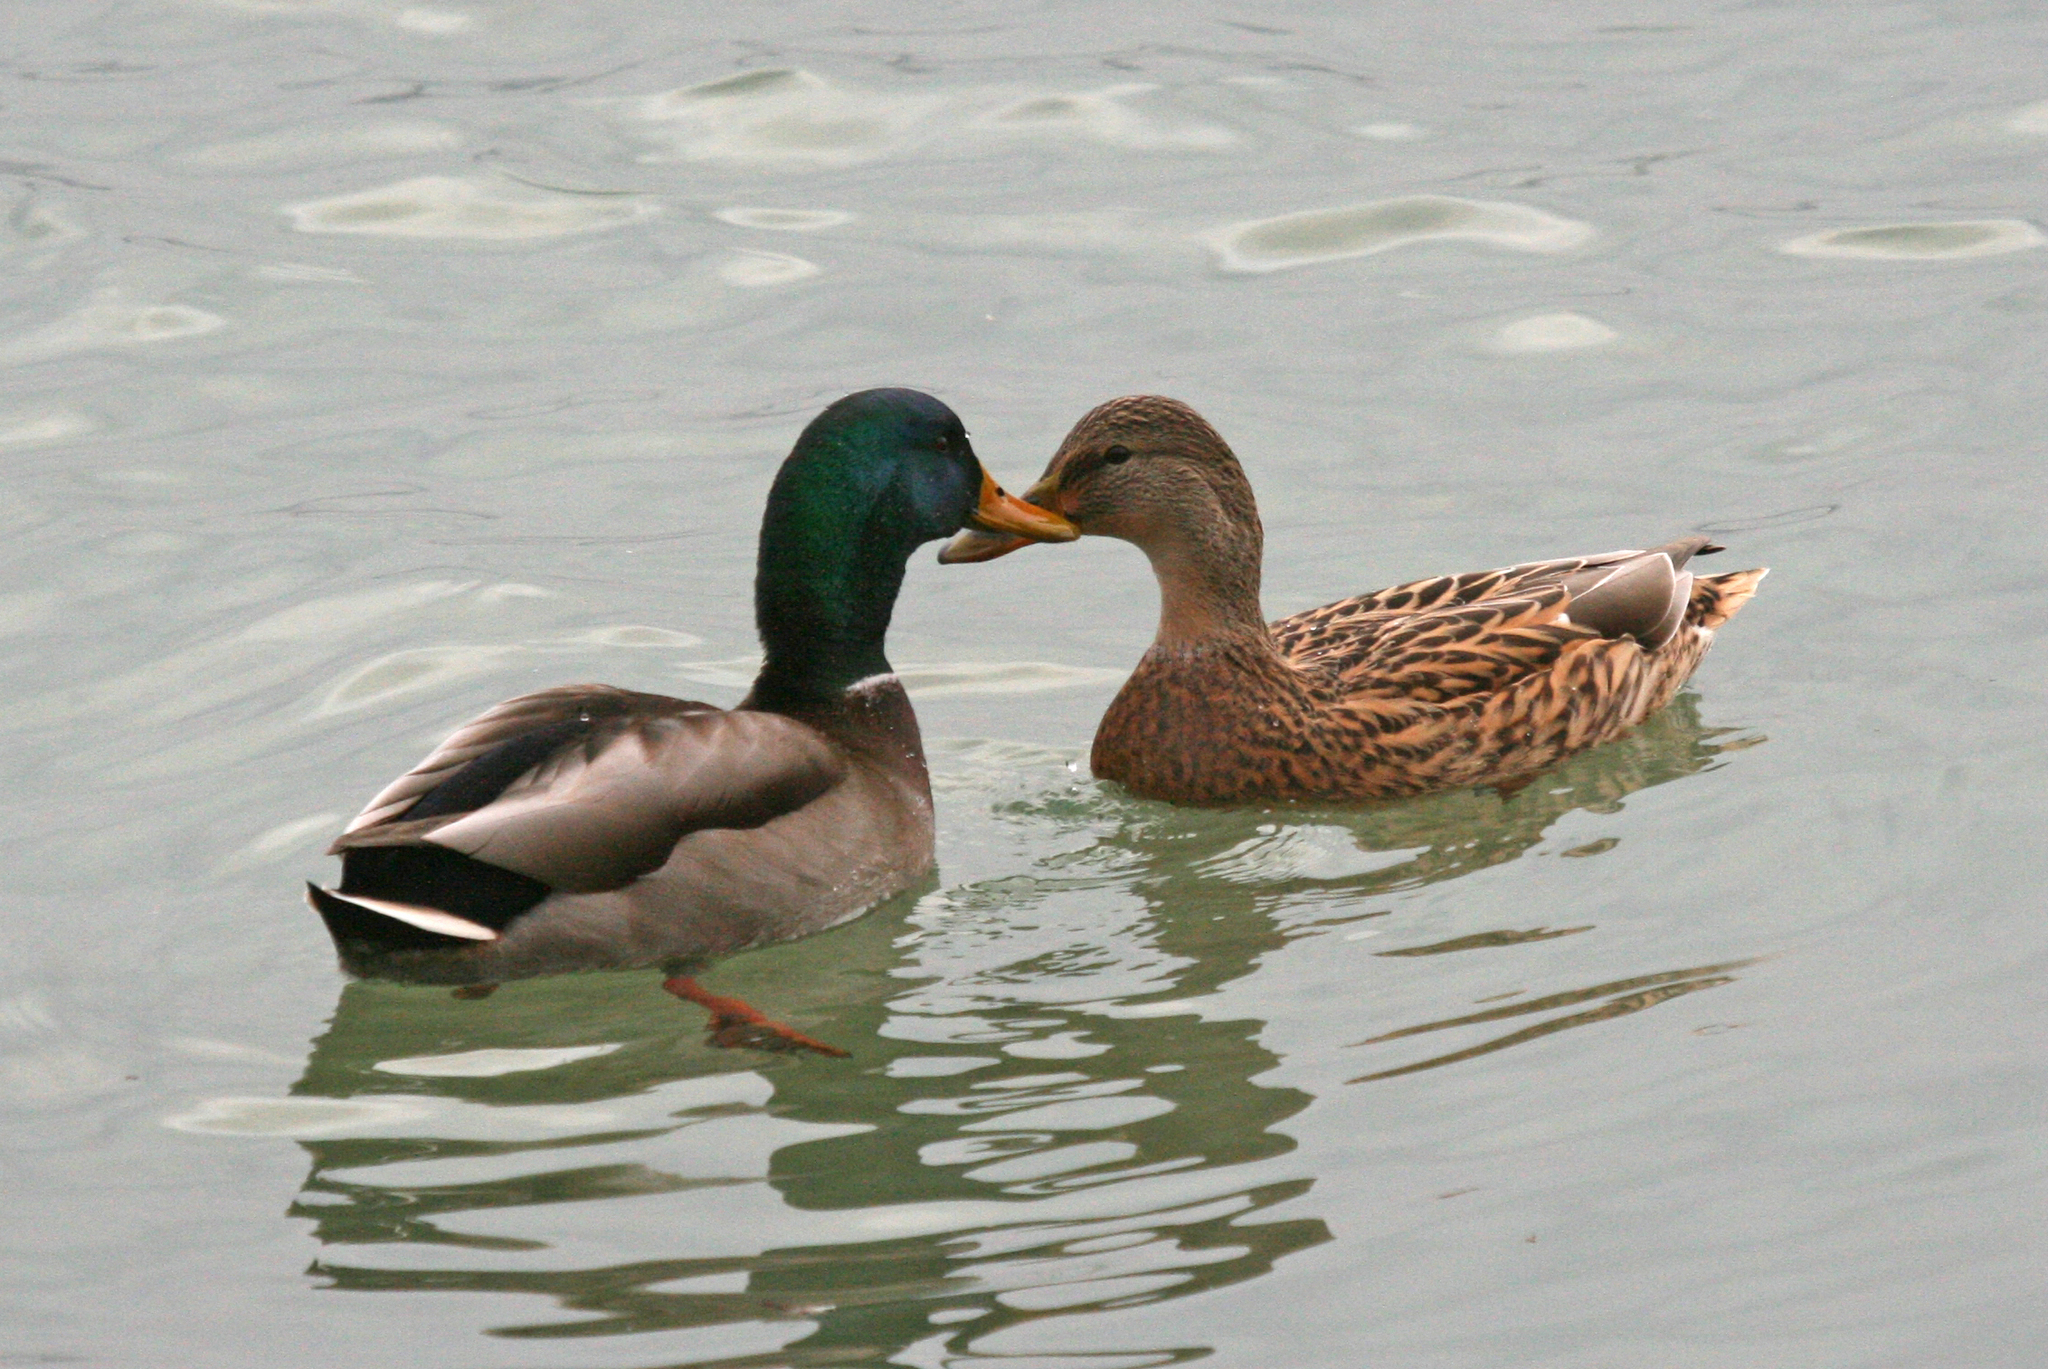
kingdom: Animalia
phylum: Chordata
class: Aves
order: Anseriformes
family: Anatidae
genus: Anas
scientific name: Anas platyrhynchos
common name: Mallard
